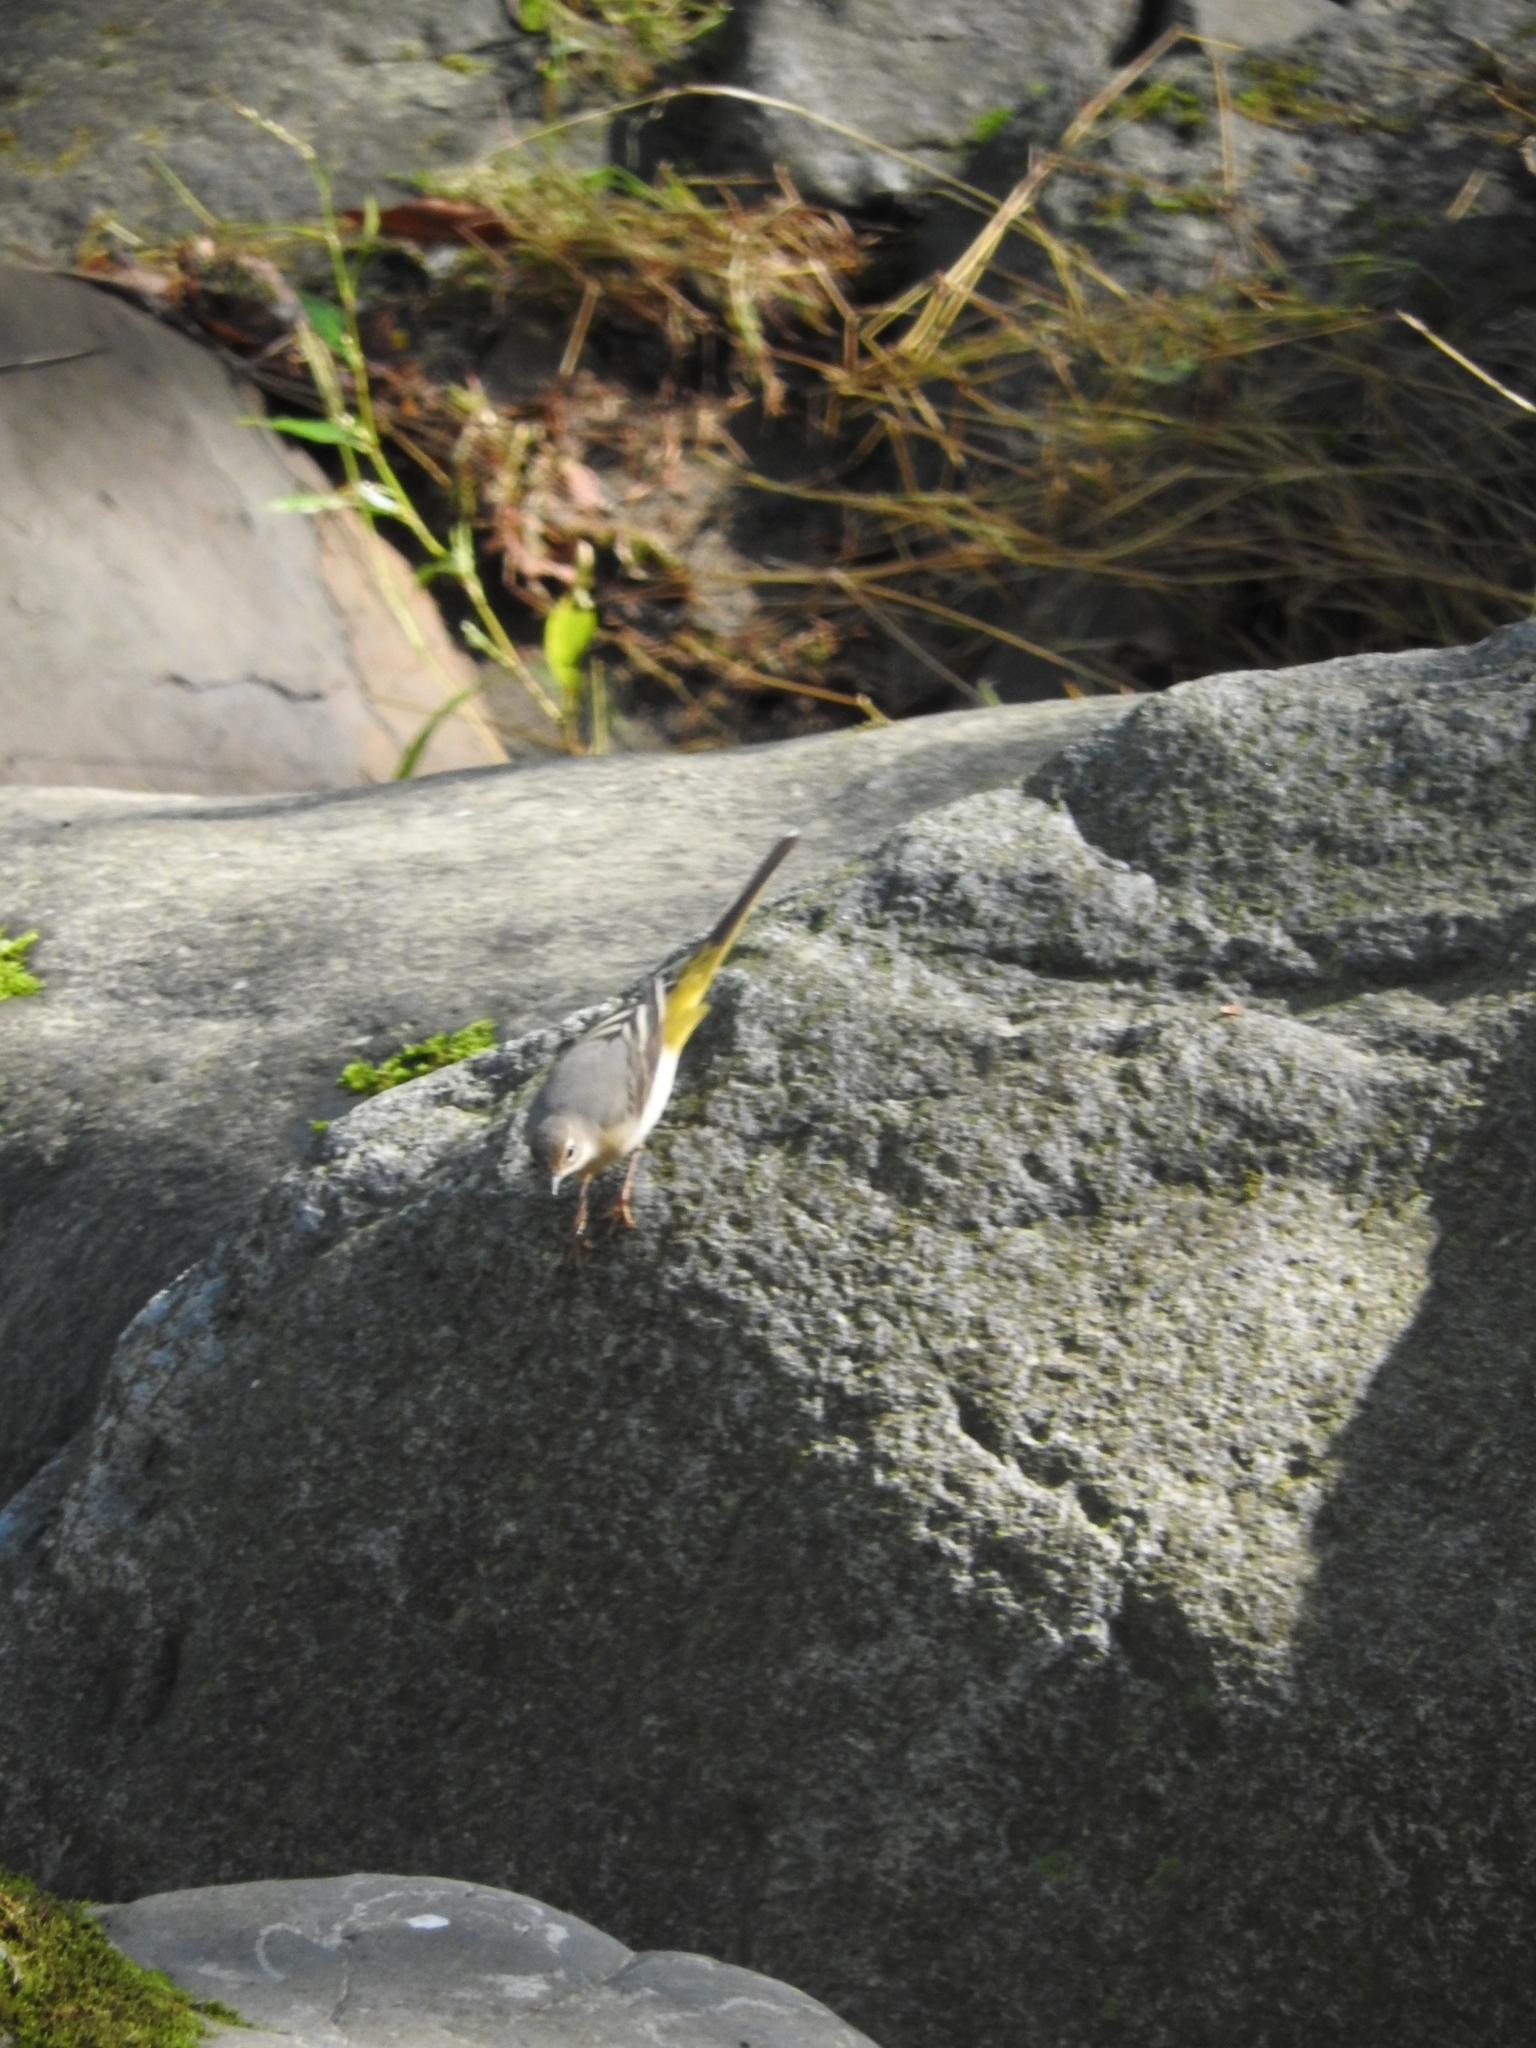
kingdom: Animalia
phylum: Chordata
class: Aves
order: Passeriformes
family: Motacillidae
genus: Motacilla
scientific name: Motacilla cinerea
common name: Grey wagtail
